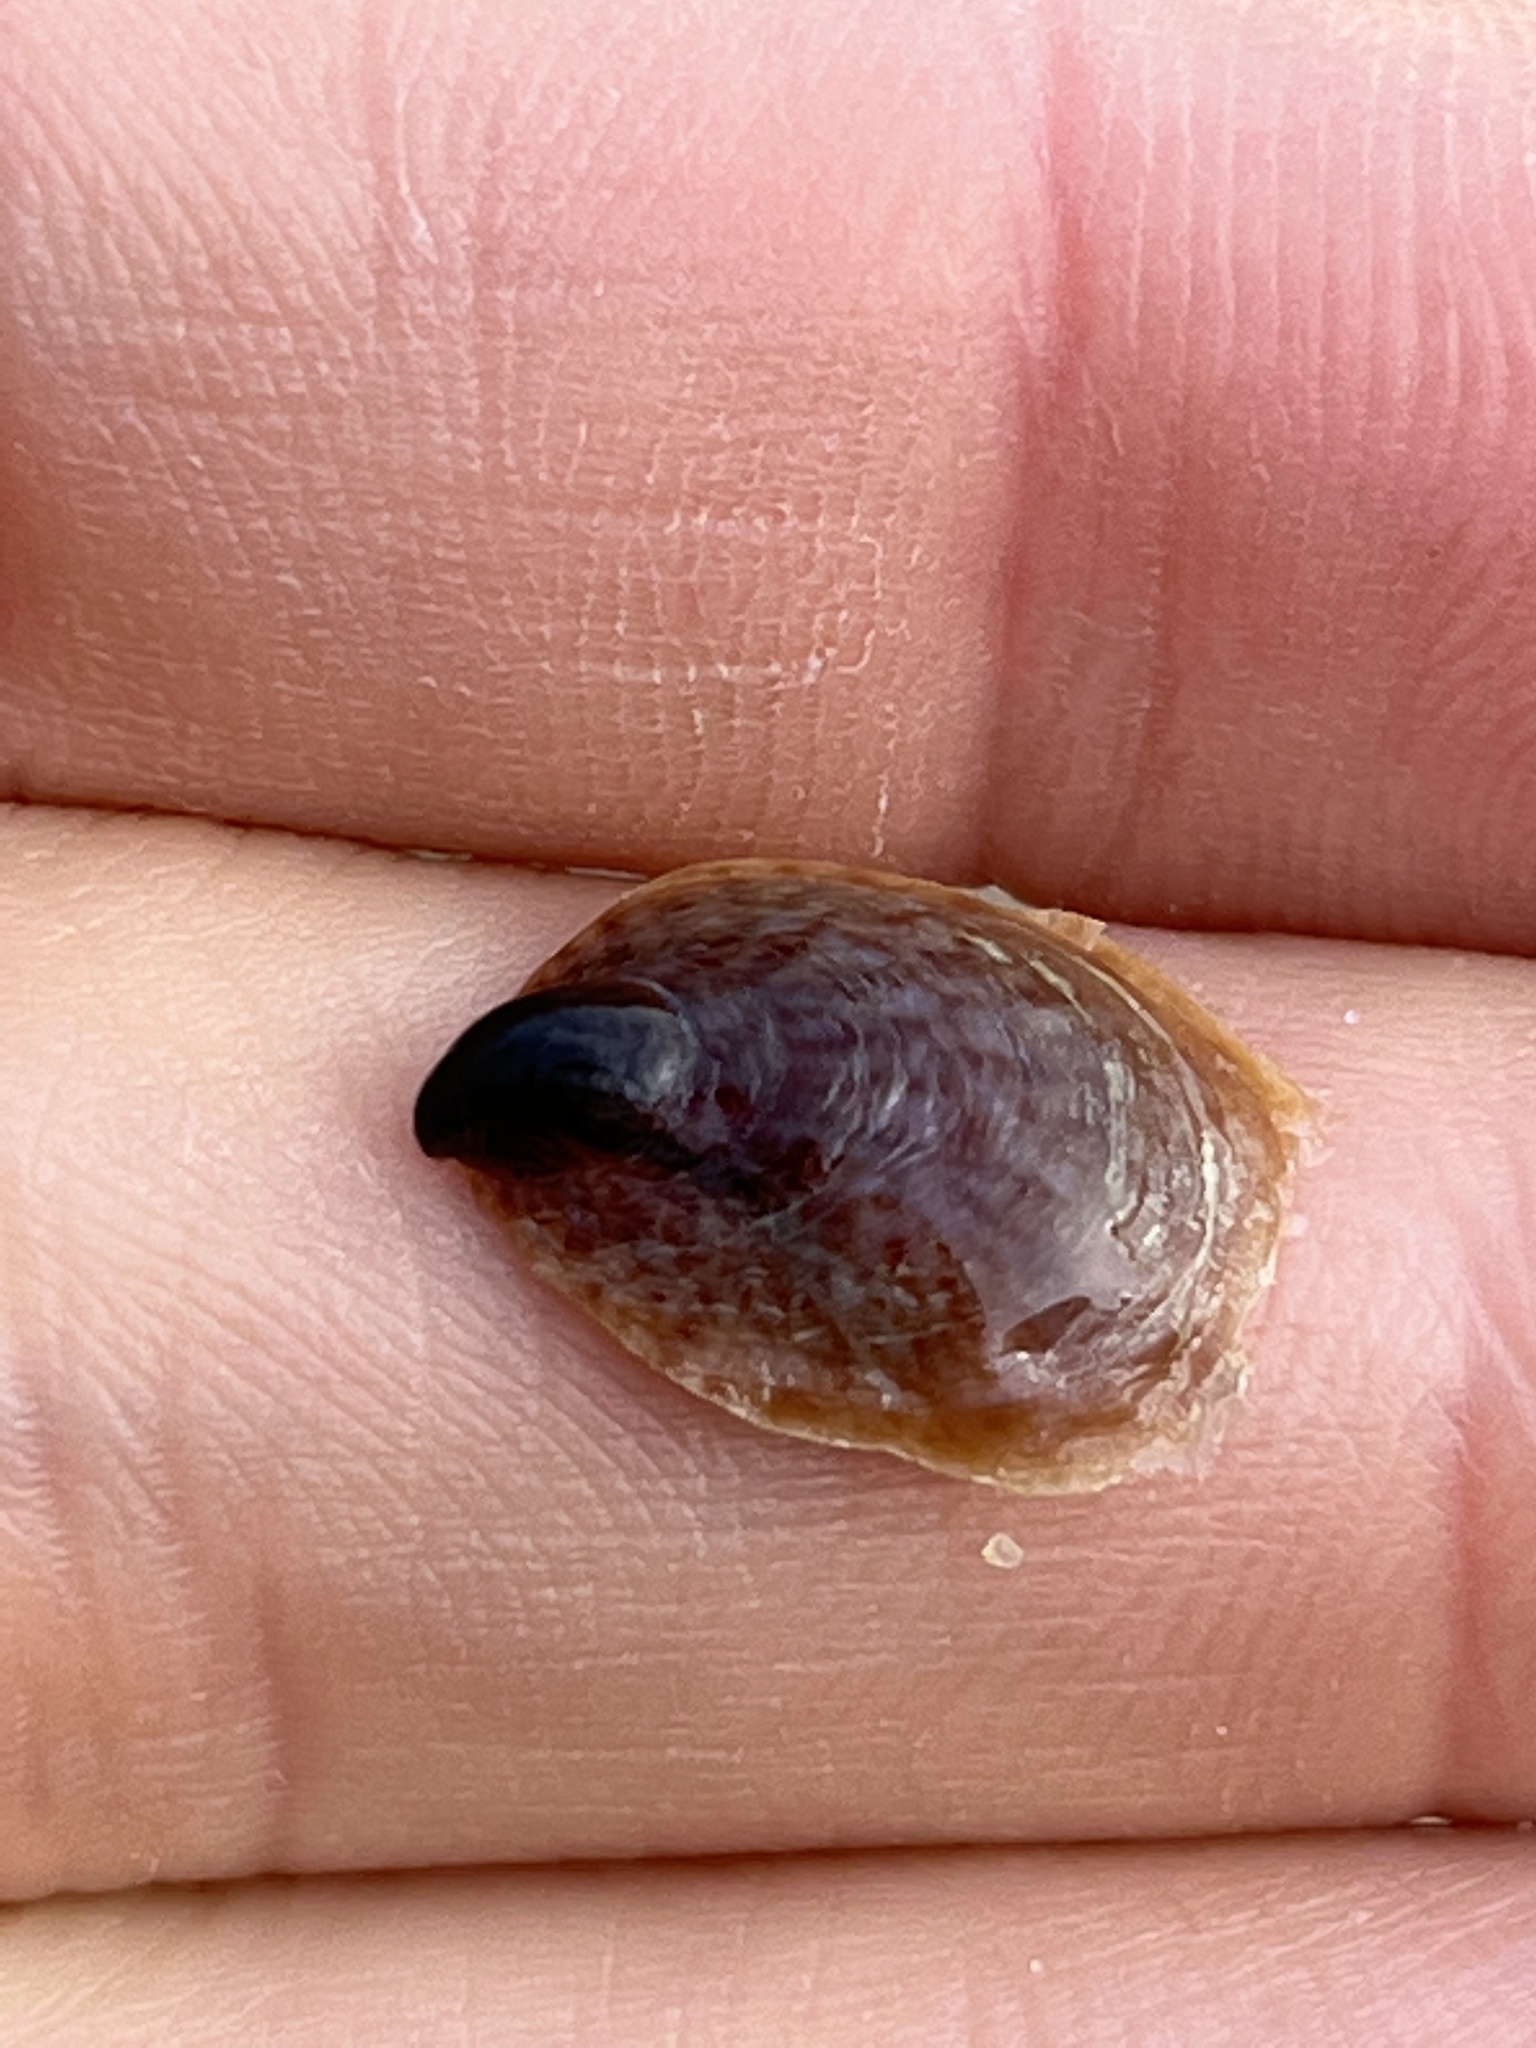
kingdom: Animalia
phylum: Mollusca
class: Gastropoda
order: Littorinimorpha
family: Calyptraeidae
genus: Crepidula
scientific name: Crepidula onyx
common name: Onyx slippersnail
